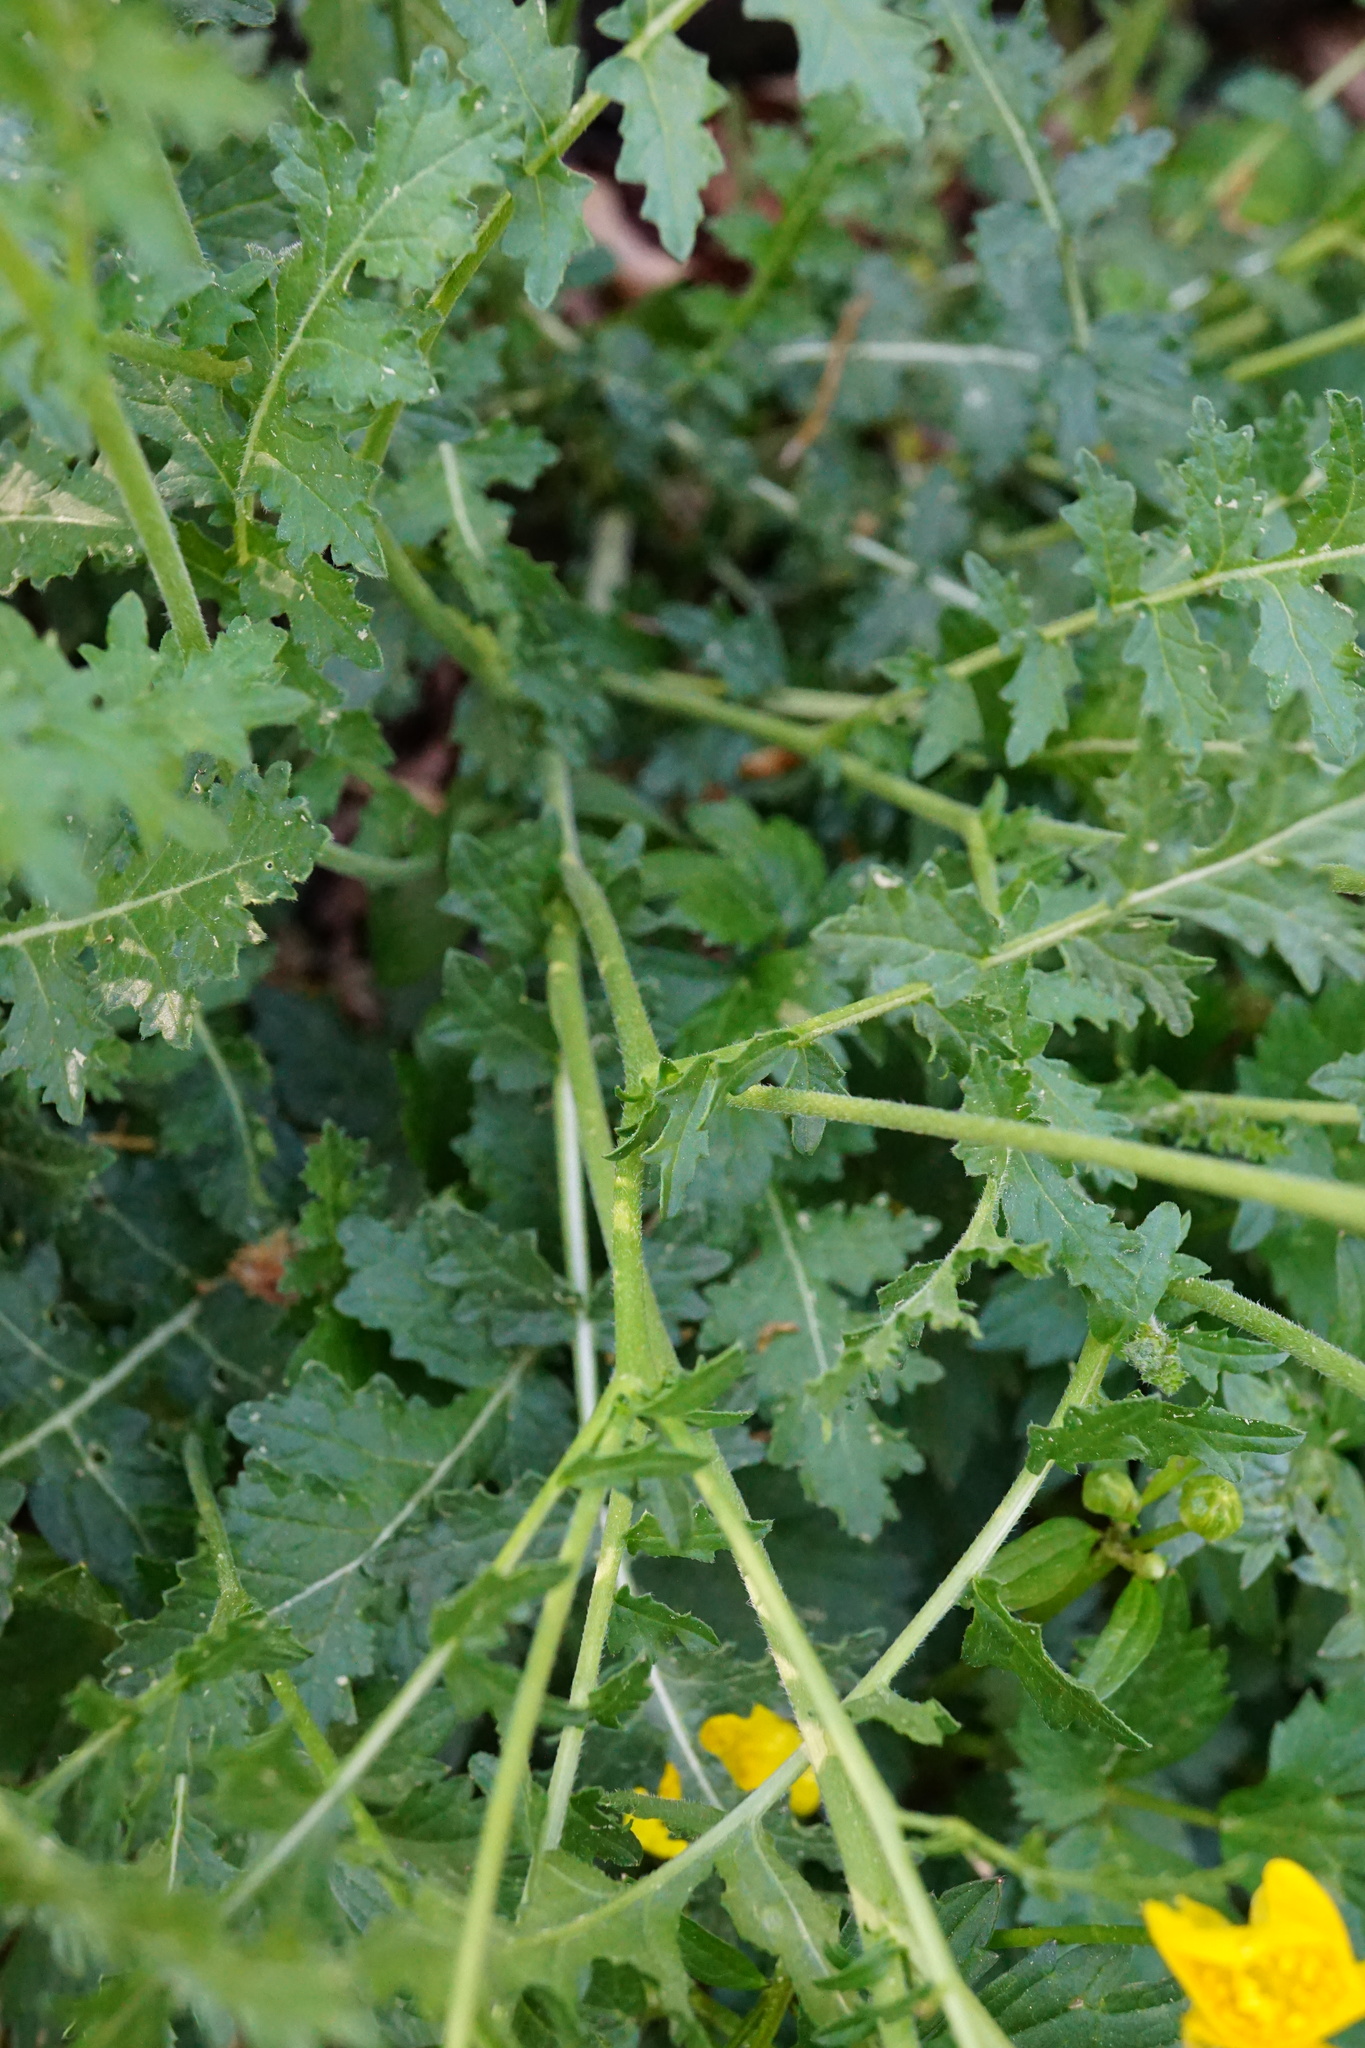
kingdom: Plantae
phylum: Tracheophyta
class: Magnoliopsida
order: Brassicales
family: Brassicaceae
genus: Erucastrum
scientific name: Erucastrum nasturtiifolium
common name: Watercress-leaf rocket
